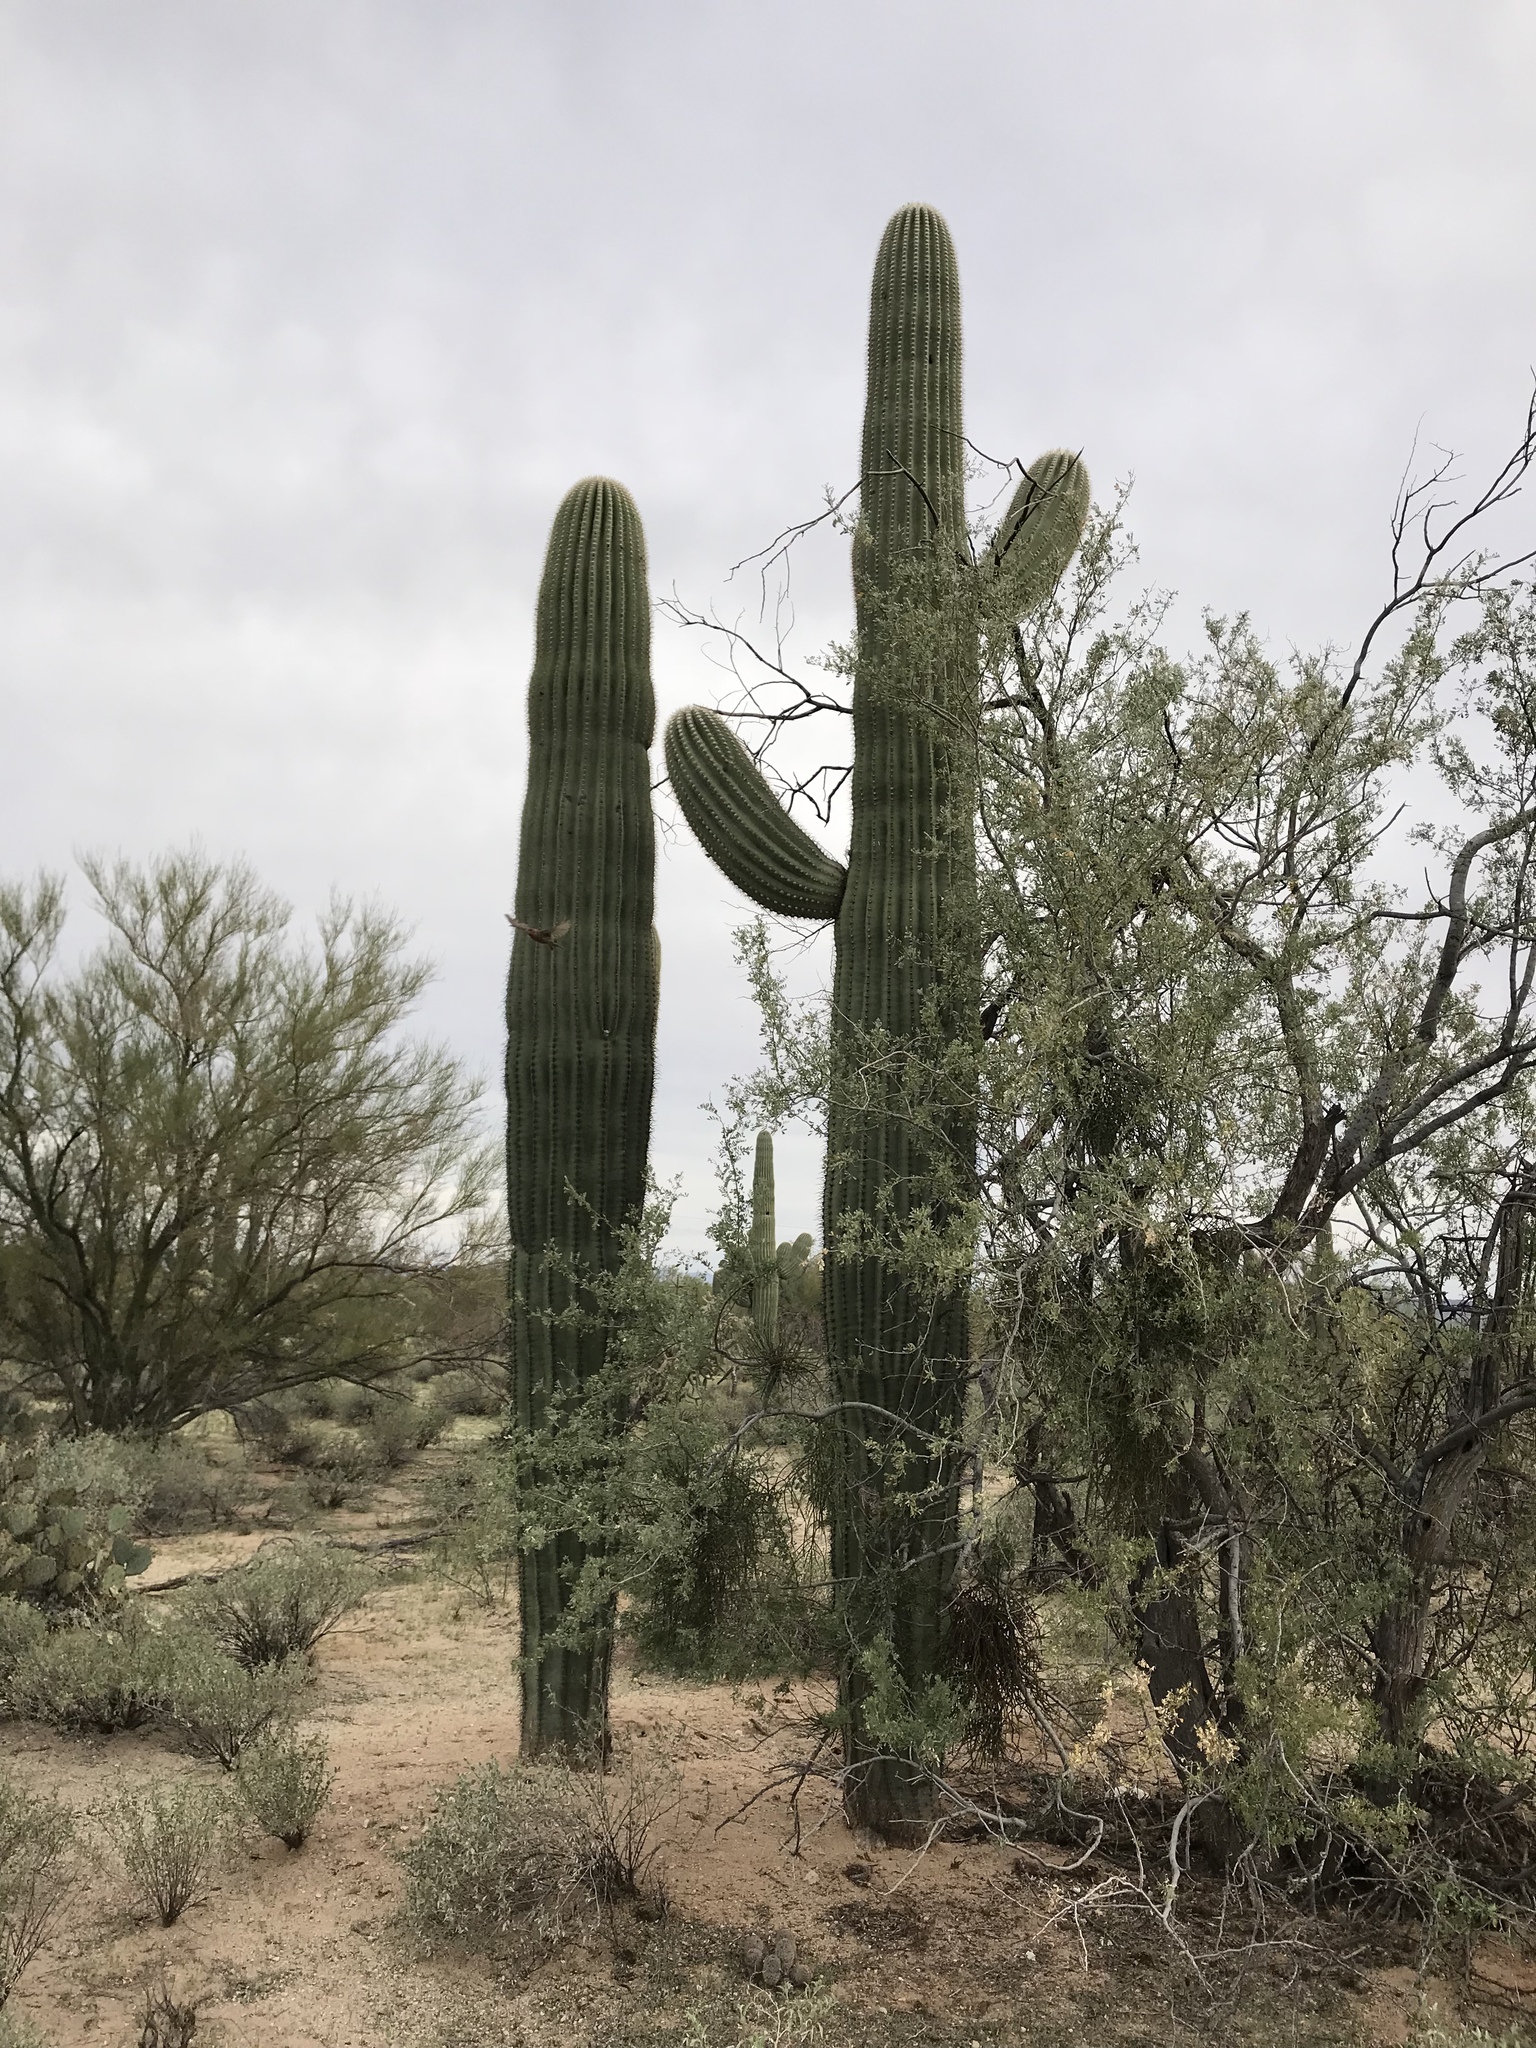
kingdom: Plantae
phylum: Tracheophyta
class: Magnoliopsida
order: Caryophyllales
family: Cactaceae
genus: Carnegiea
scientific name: Carnegiea gigantea
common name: Saguaro
